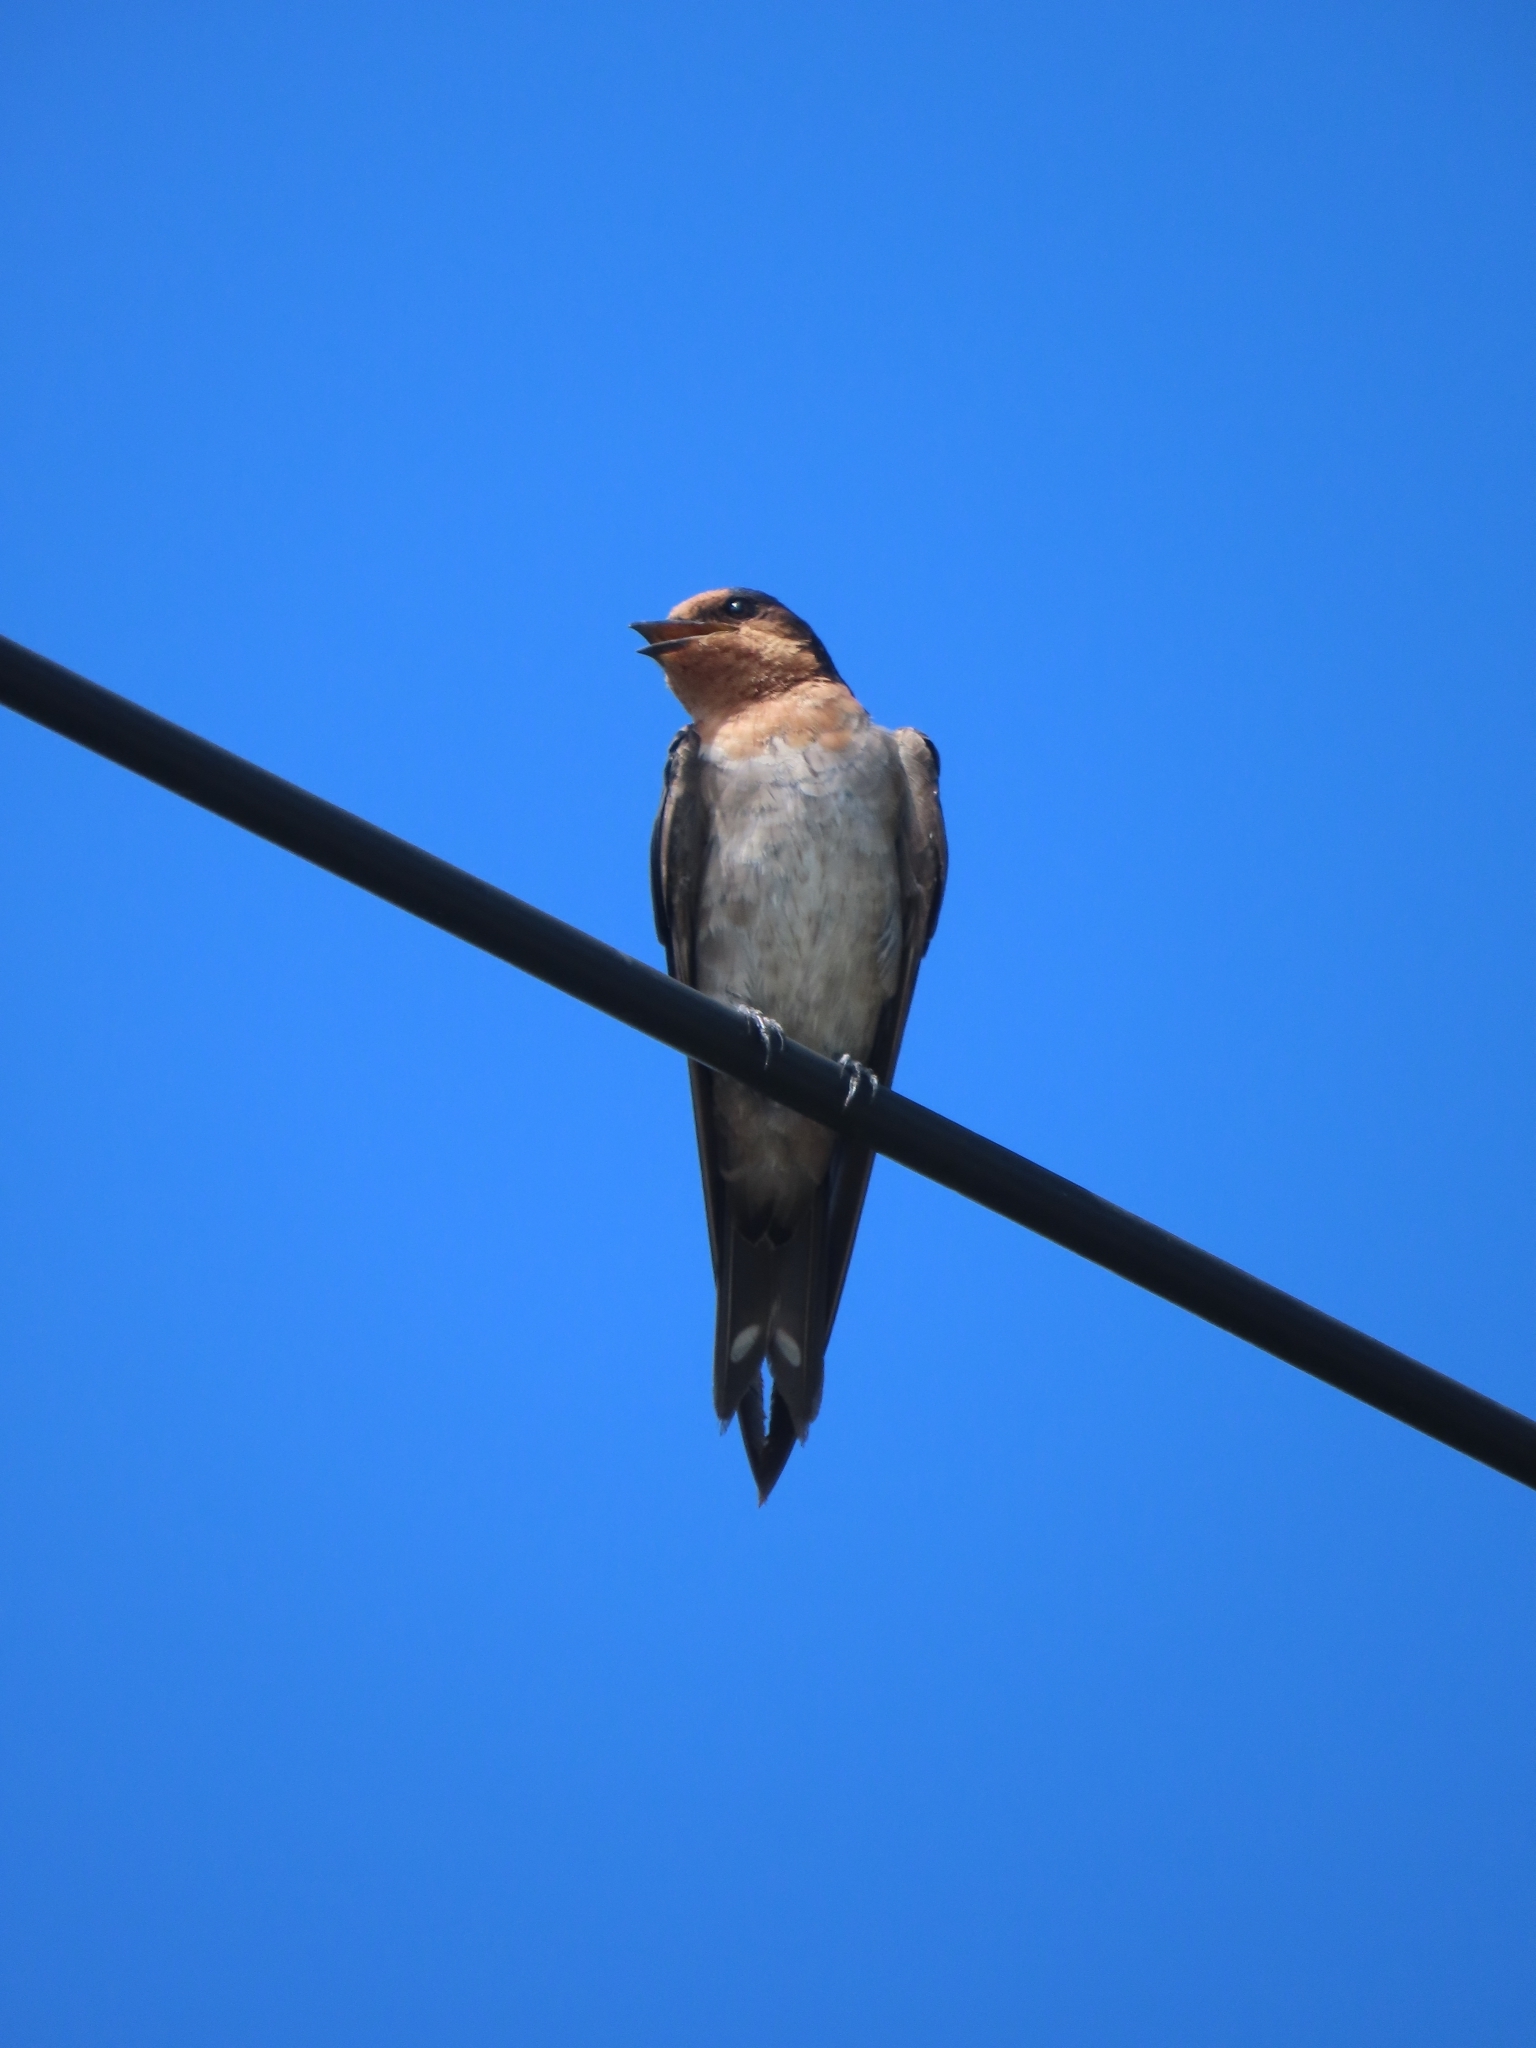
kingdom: Animalia
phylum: Chordata
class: Aves
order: Passeriformes
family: Hirundinidae
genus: Hirundo
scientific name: Hirundo tahitica
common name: Pacific swallow
